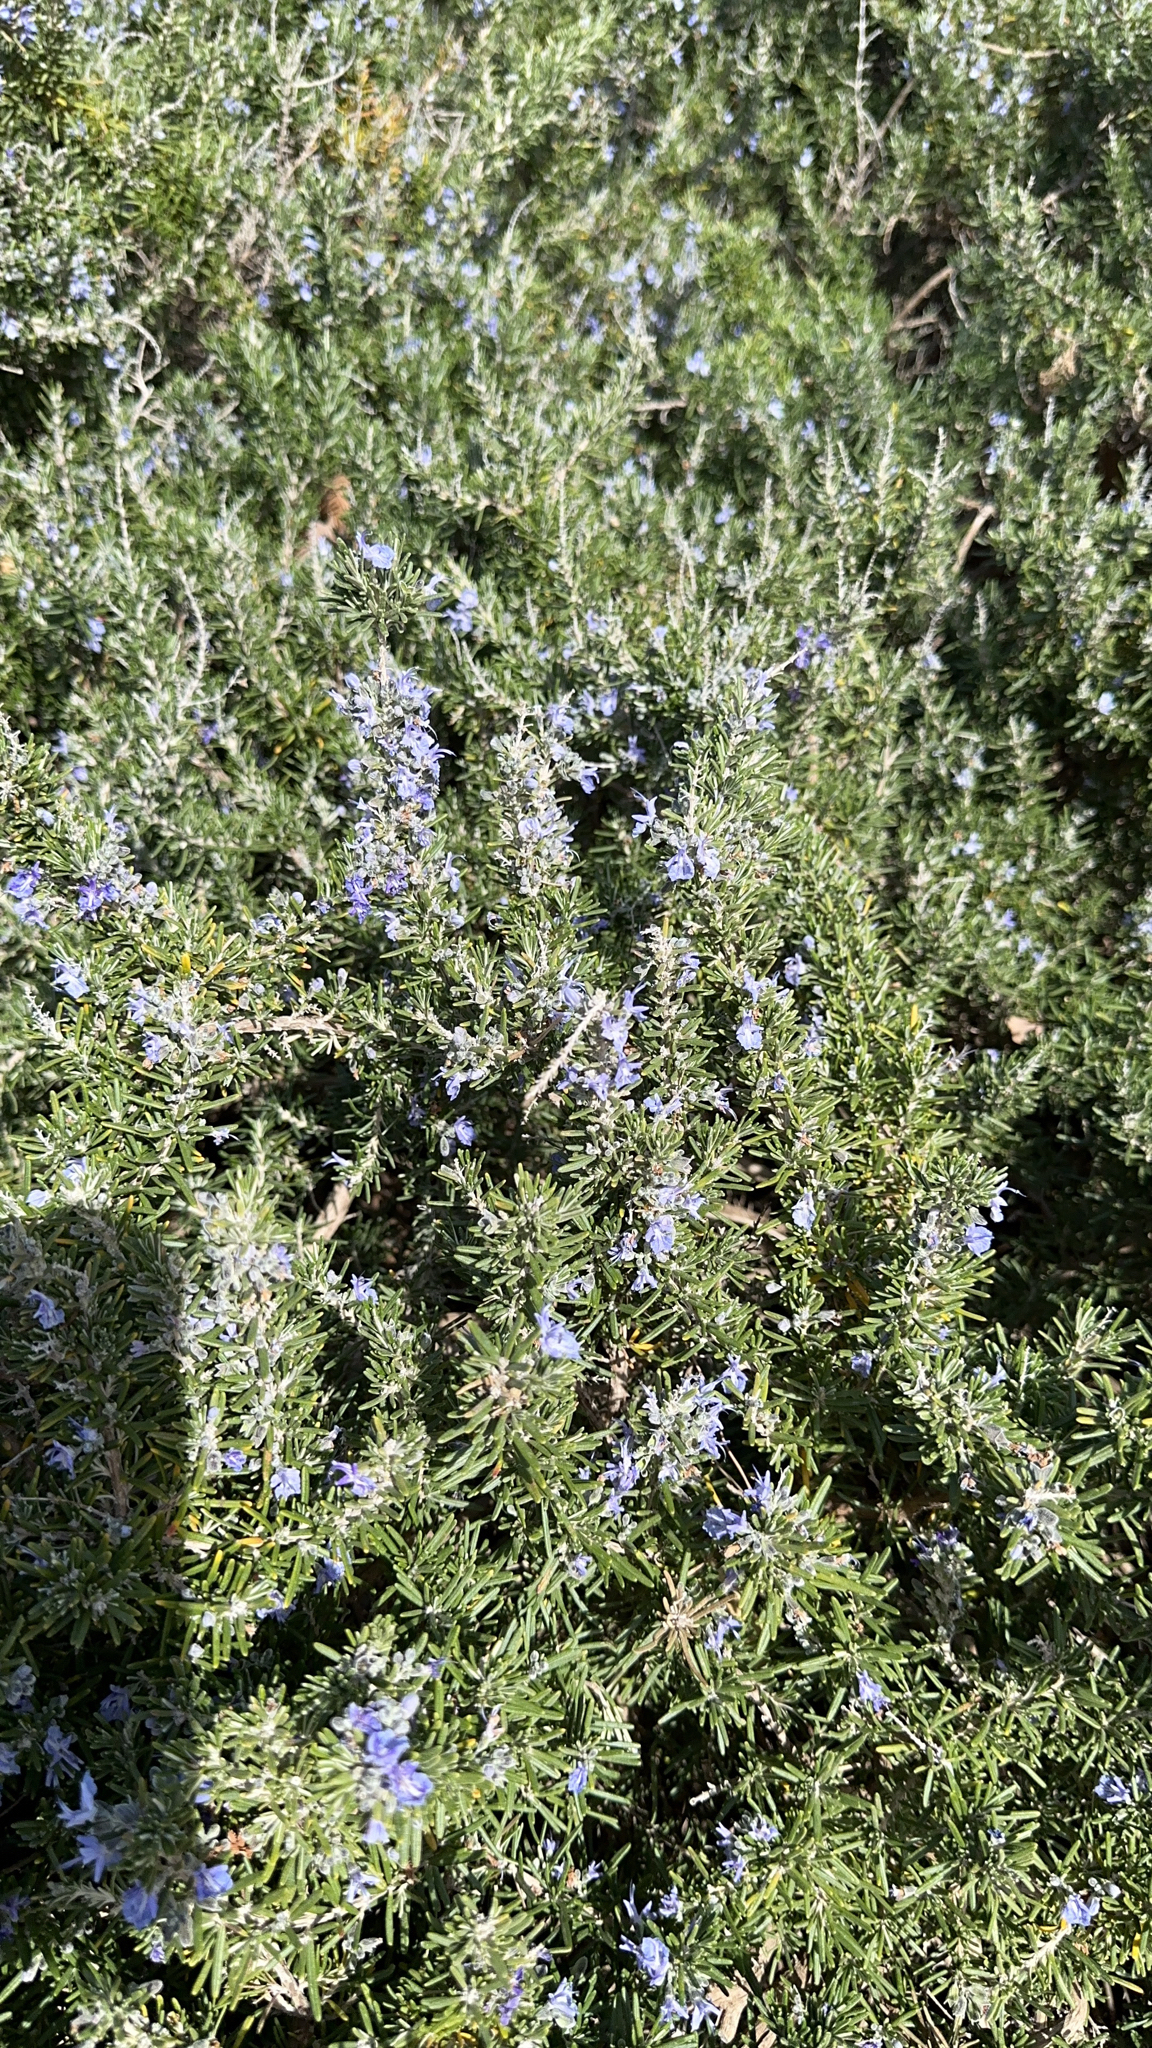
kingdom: Plantae
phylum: Tracheophyta
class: Magnoliopsida
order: Lamiales
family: Lamiaceae
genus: Salvia
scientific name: Salvia rosmarinus
